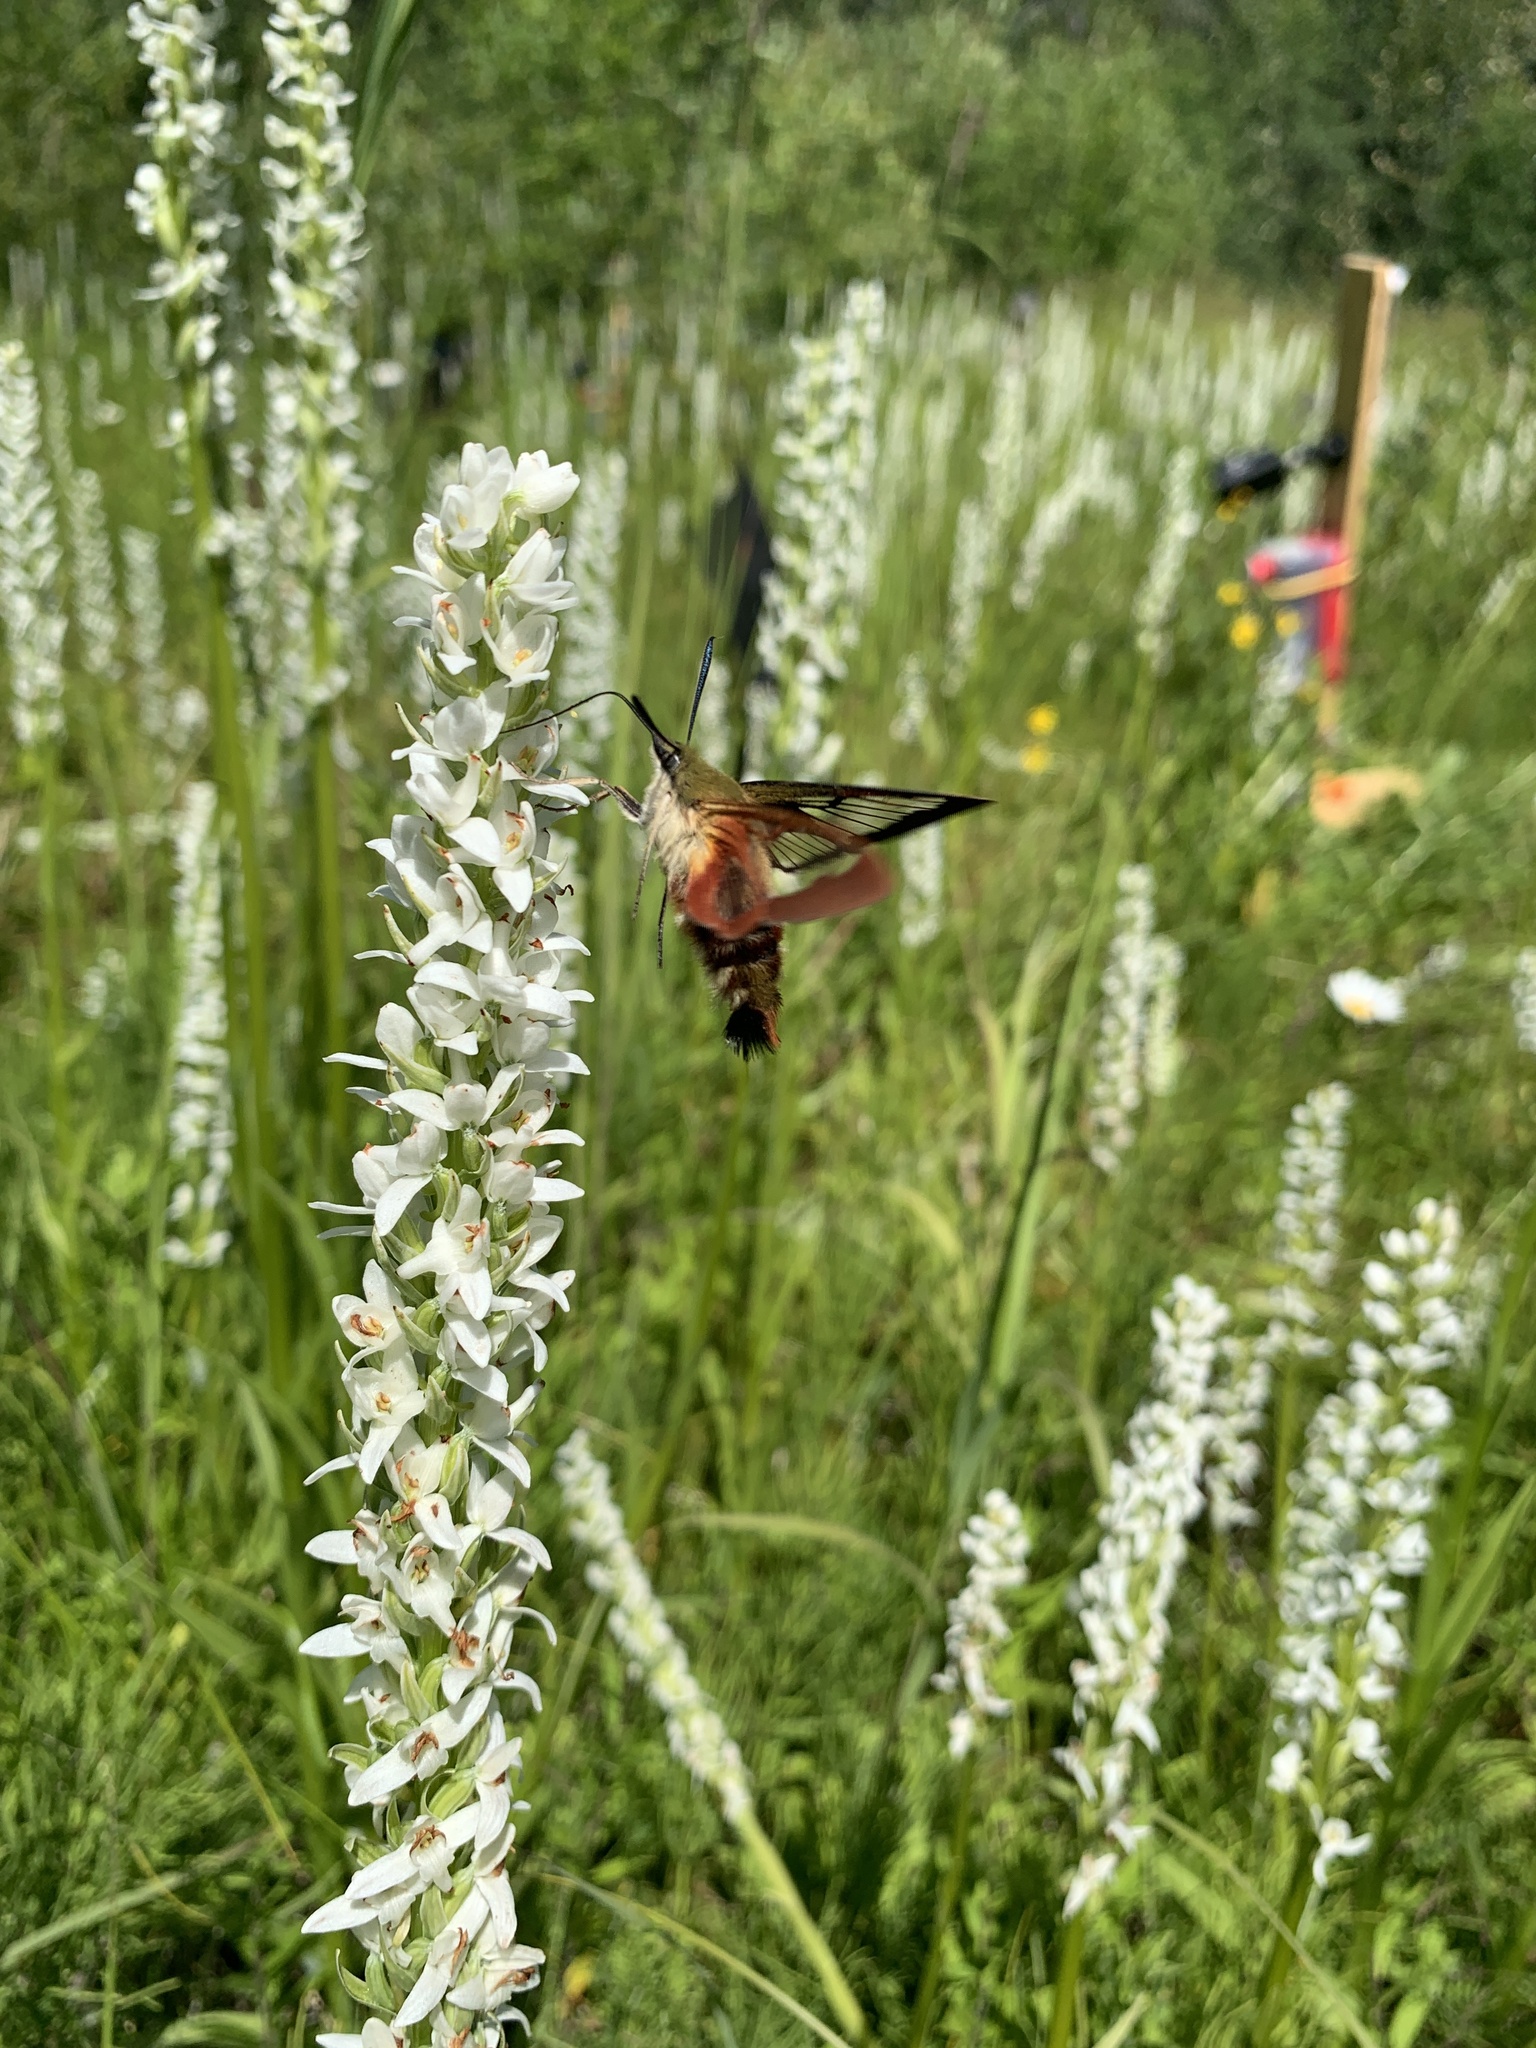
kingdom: Animalia
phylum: Arthropoda
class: Insecta
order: Lepidoptera
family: Sphingidae
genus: Hemaris
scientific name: Hemaris thysbe
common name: Common clear-wing
